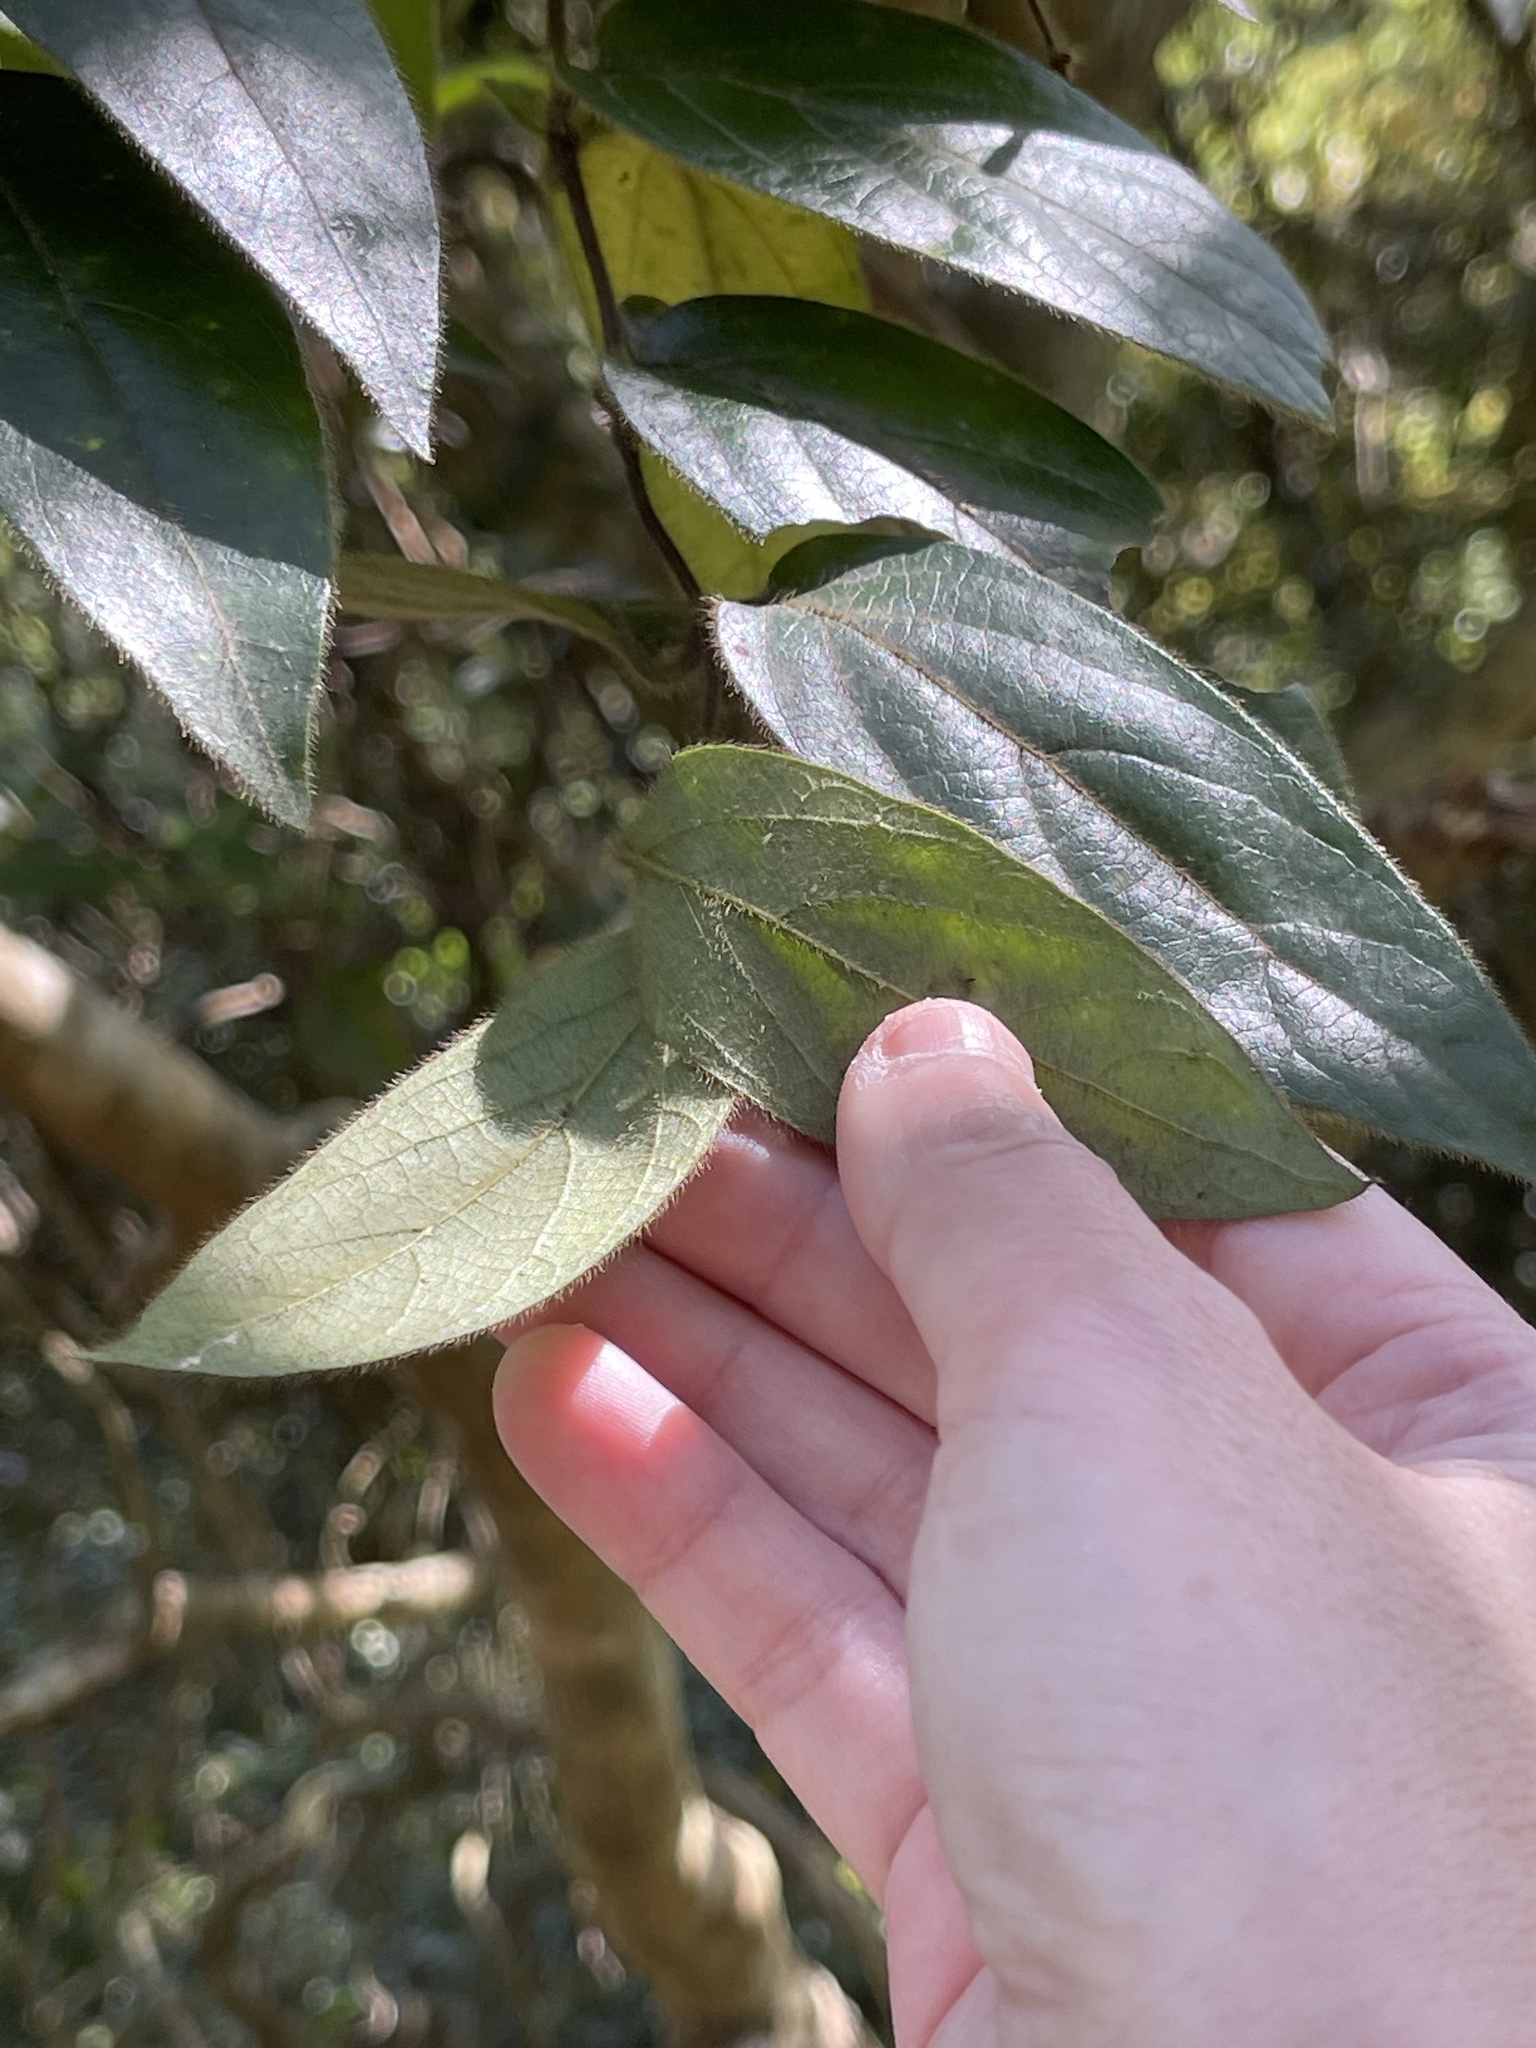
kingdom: Plantae
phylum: Tracheophyta
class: Magnoliopsida
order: Dipsacales
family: Caprifoliaceae
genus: Lonicera
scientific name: Lonicera macrantha
